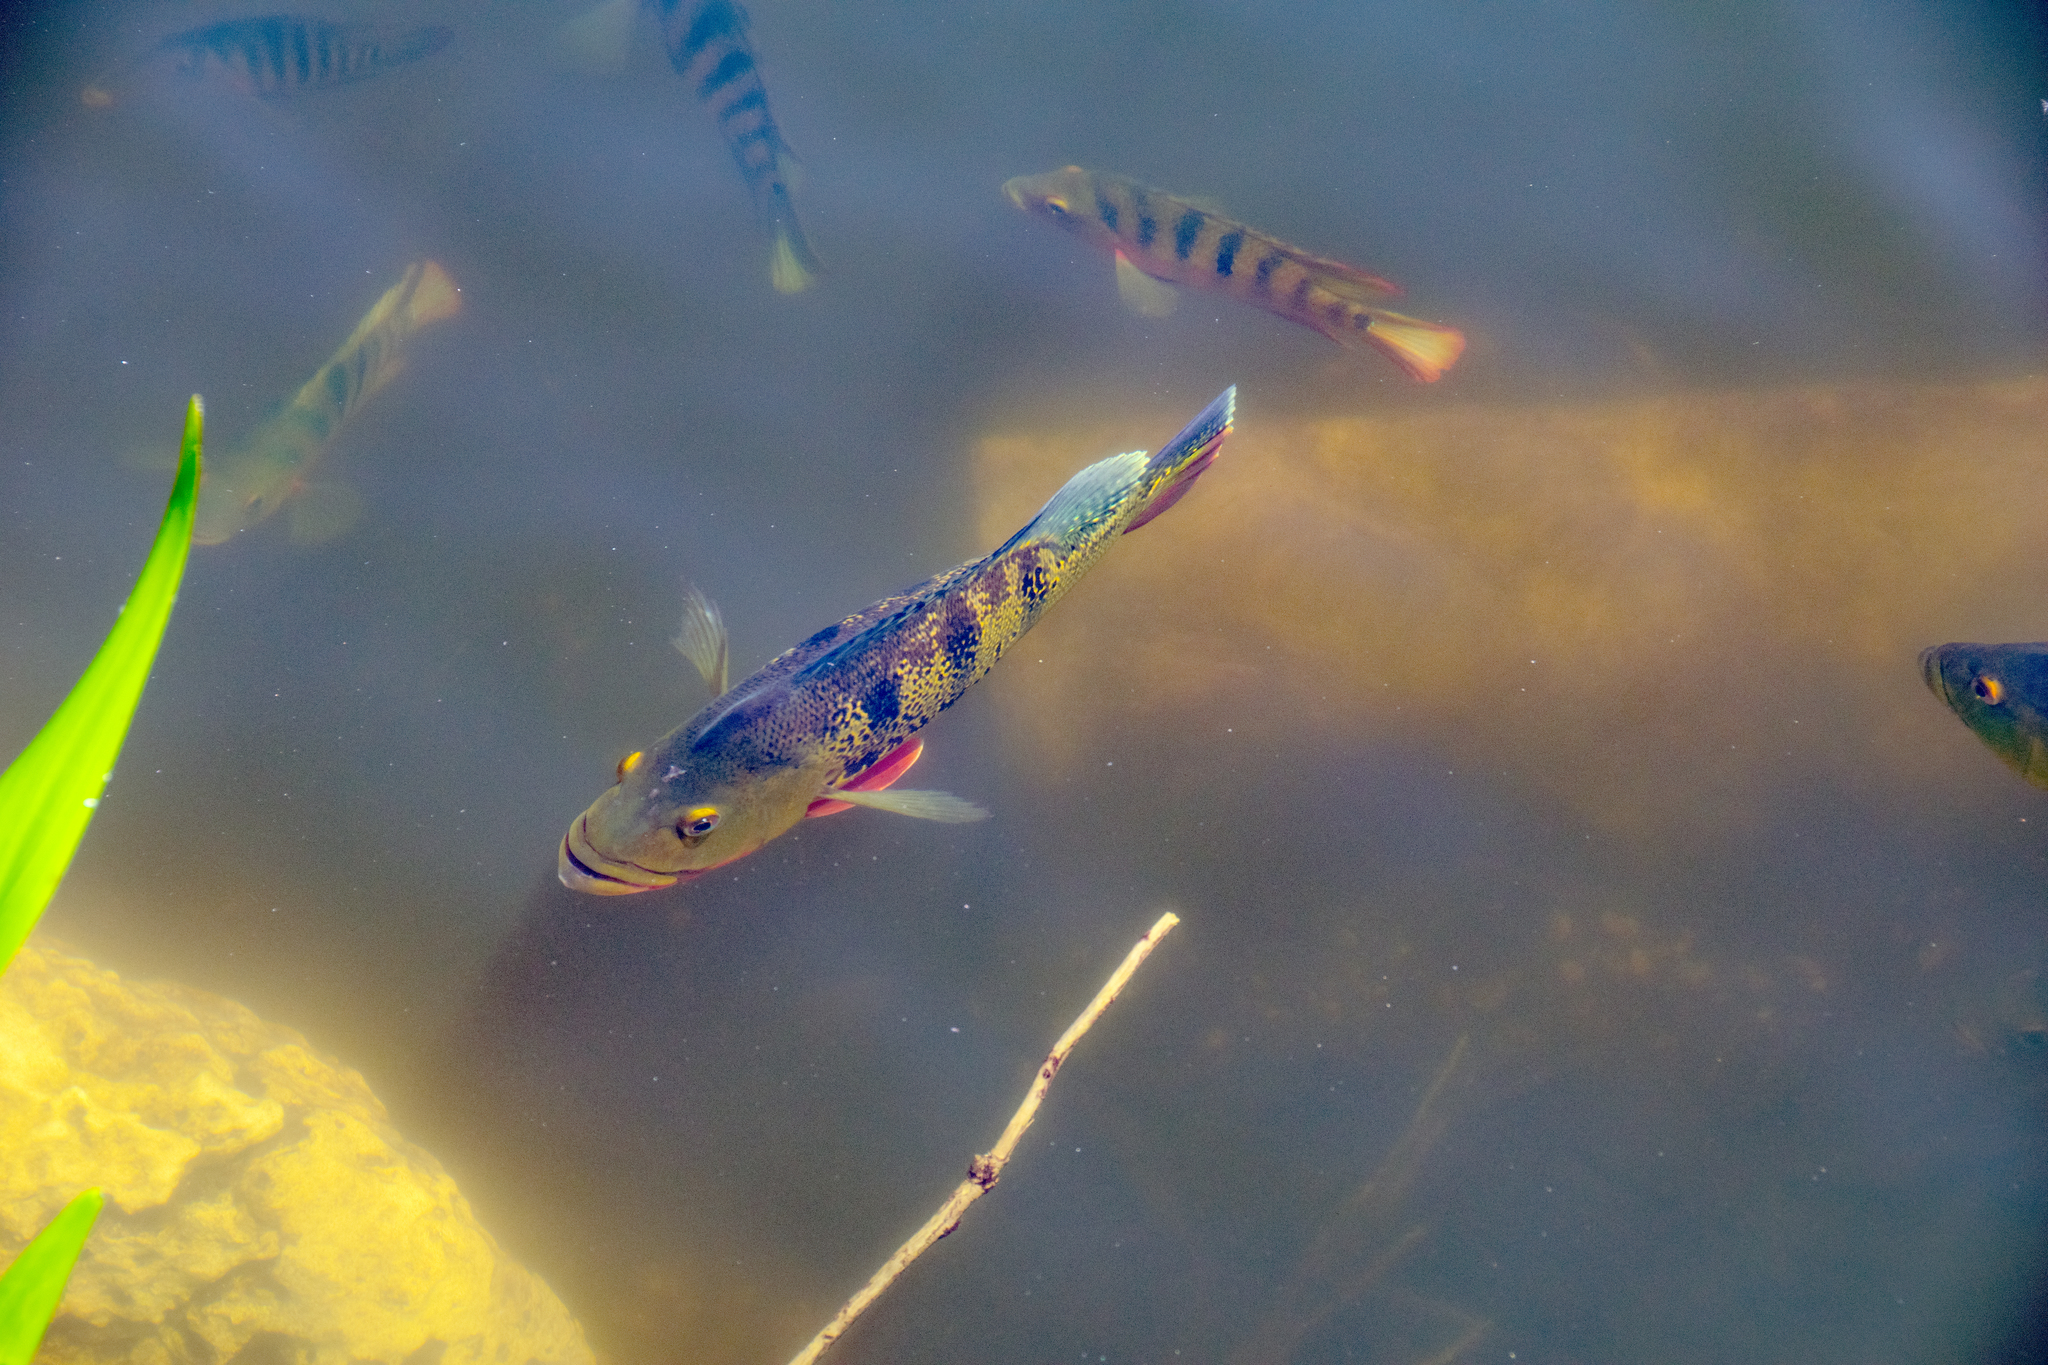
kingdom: Animalia
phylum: Chordata
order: Perciformes
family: Cichlidae
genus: Cichla
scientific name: Cichla ocellaris
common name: Peacock cichlid
